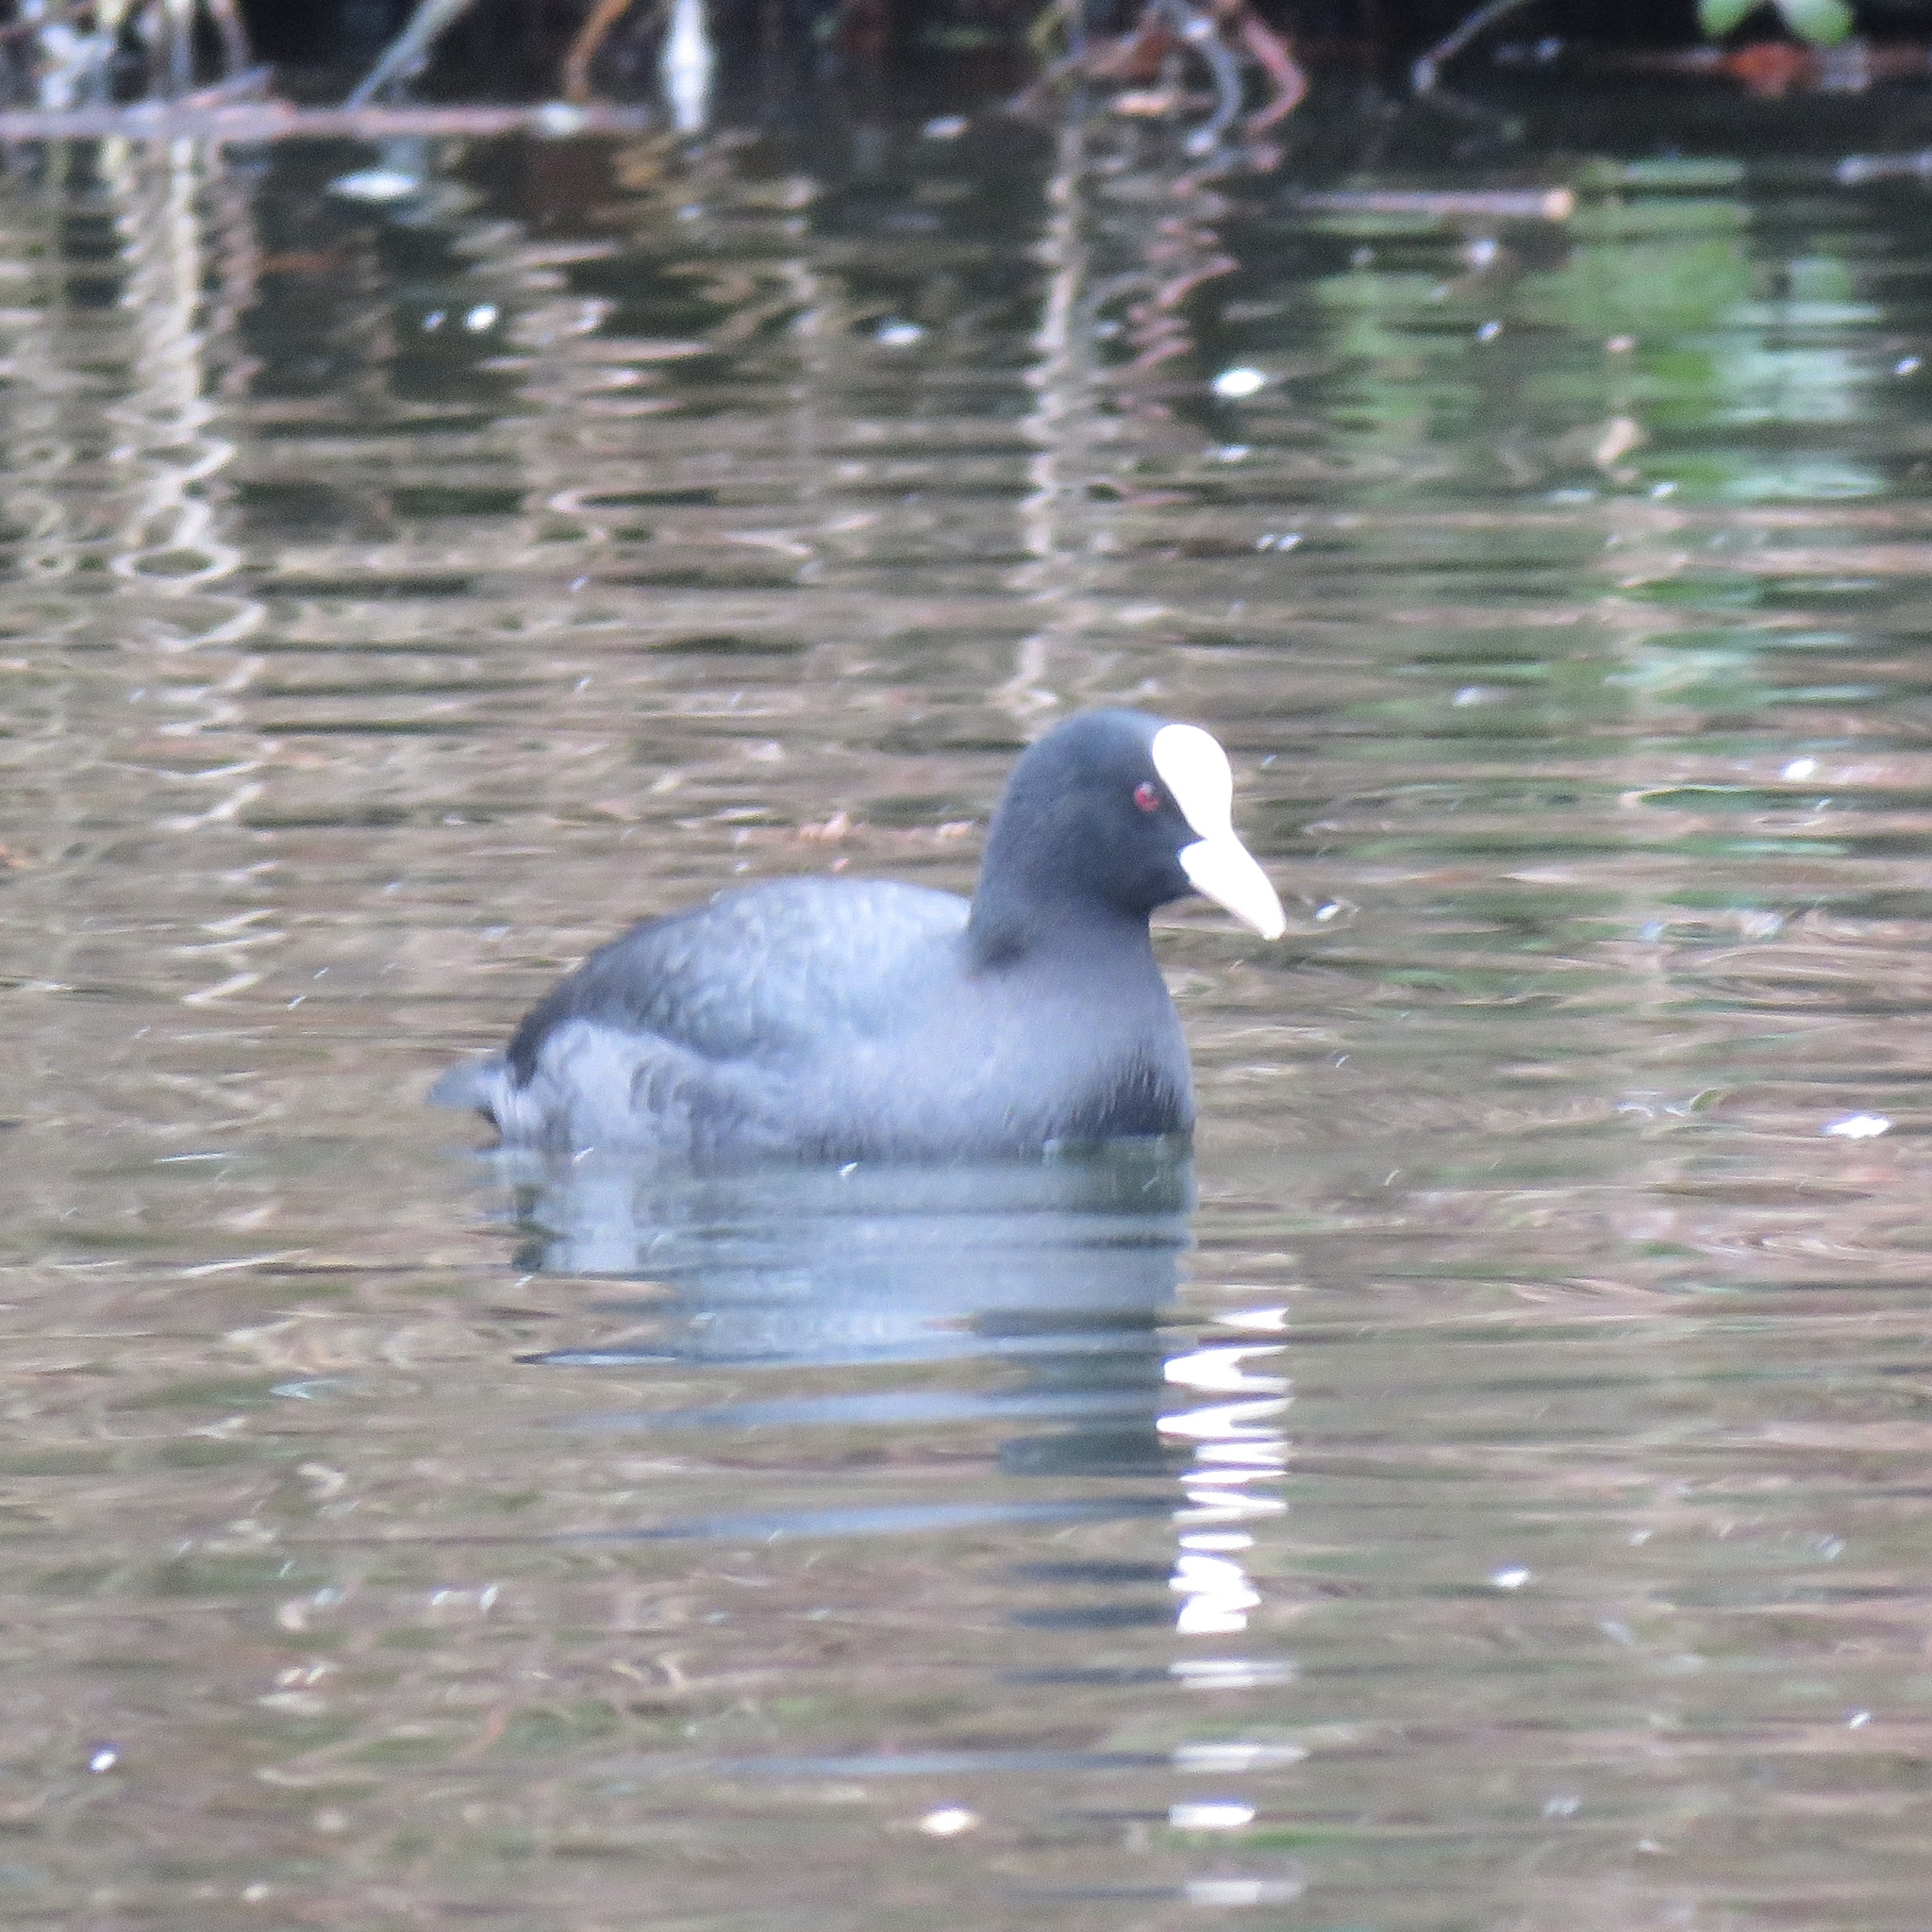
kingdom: Animalia
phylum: Chordata
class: Aves
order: Gruiformes
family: Rallidae
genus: Fulica
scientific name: Fulica atra
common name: Eurasian coot
